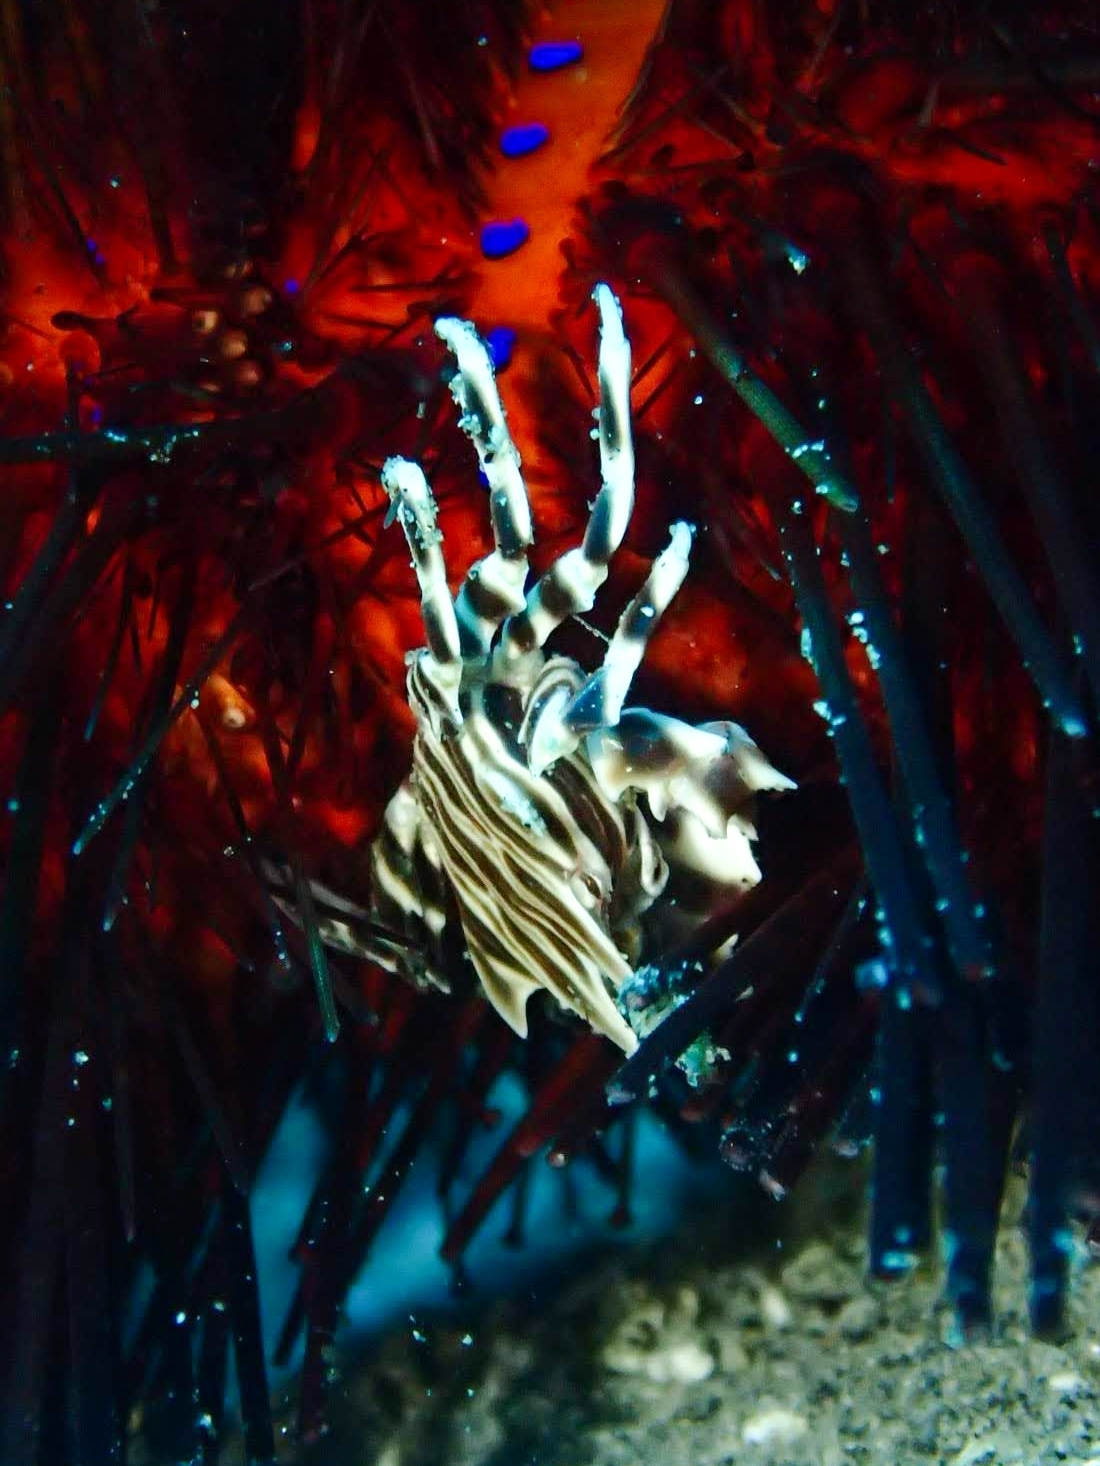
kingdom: Animalia
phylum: Arthropoda
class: Malacostraca
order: Decapoda
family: Pilumnidae
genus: Zebrida
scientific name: Zebrida adamsii
